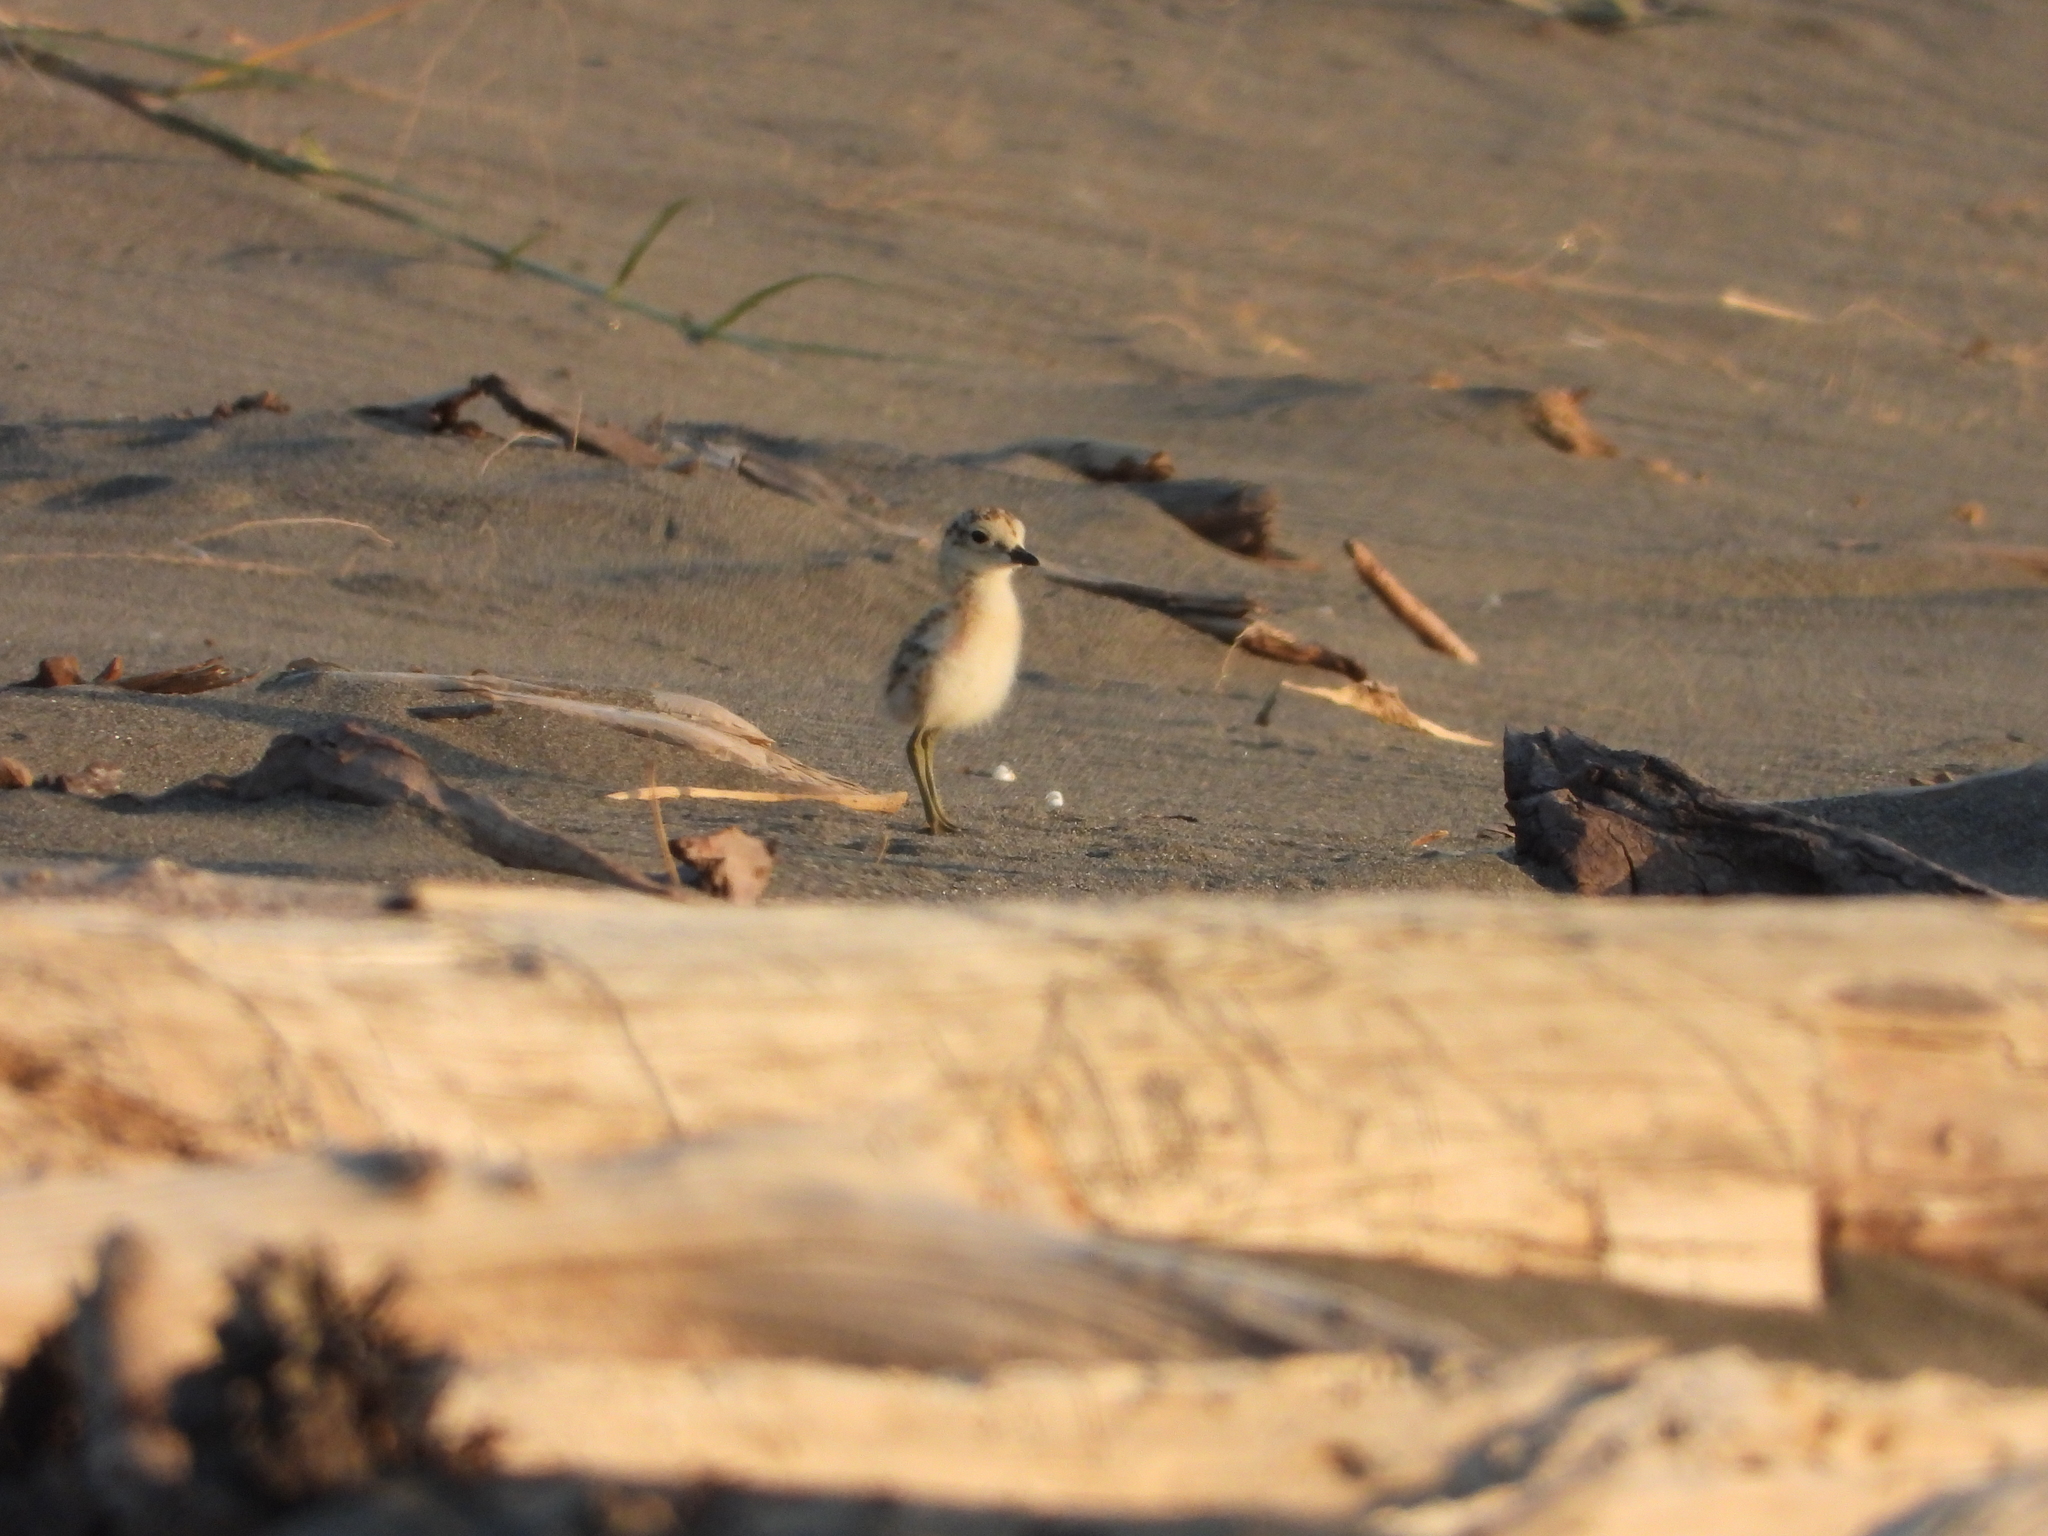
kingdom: Animalia
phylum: Chordata
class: Aves
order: Charadriiformes
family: Charadriidae
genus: Anarhynchus
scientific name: Anarhynchus
